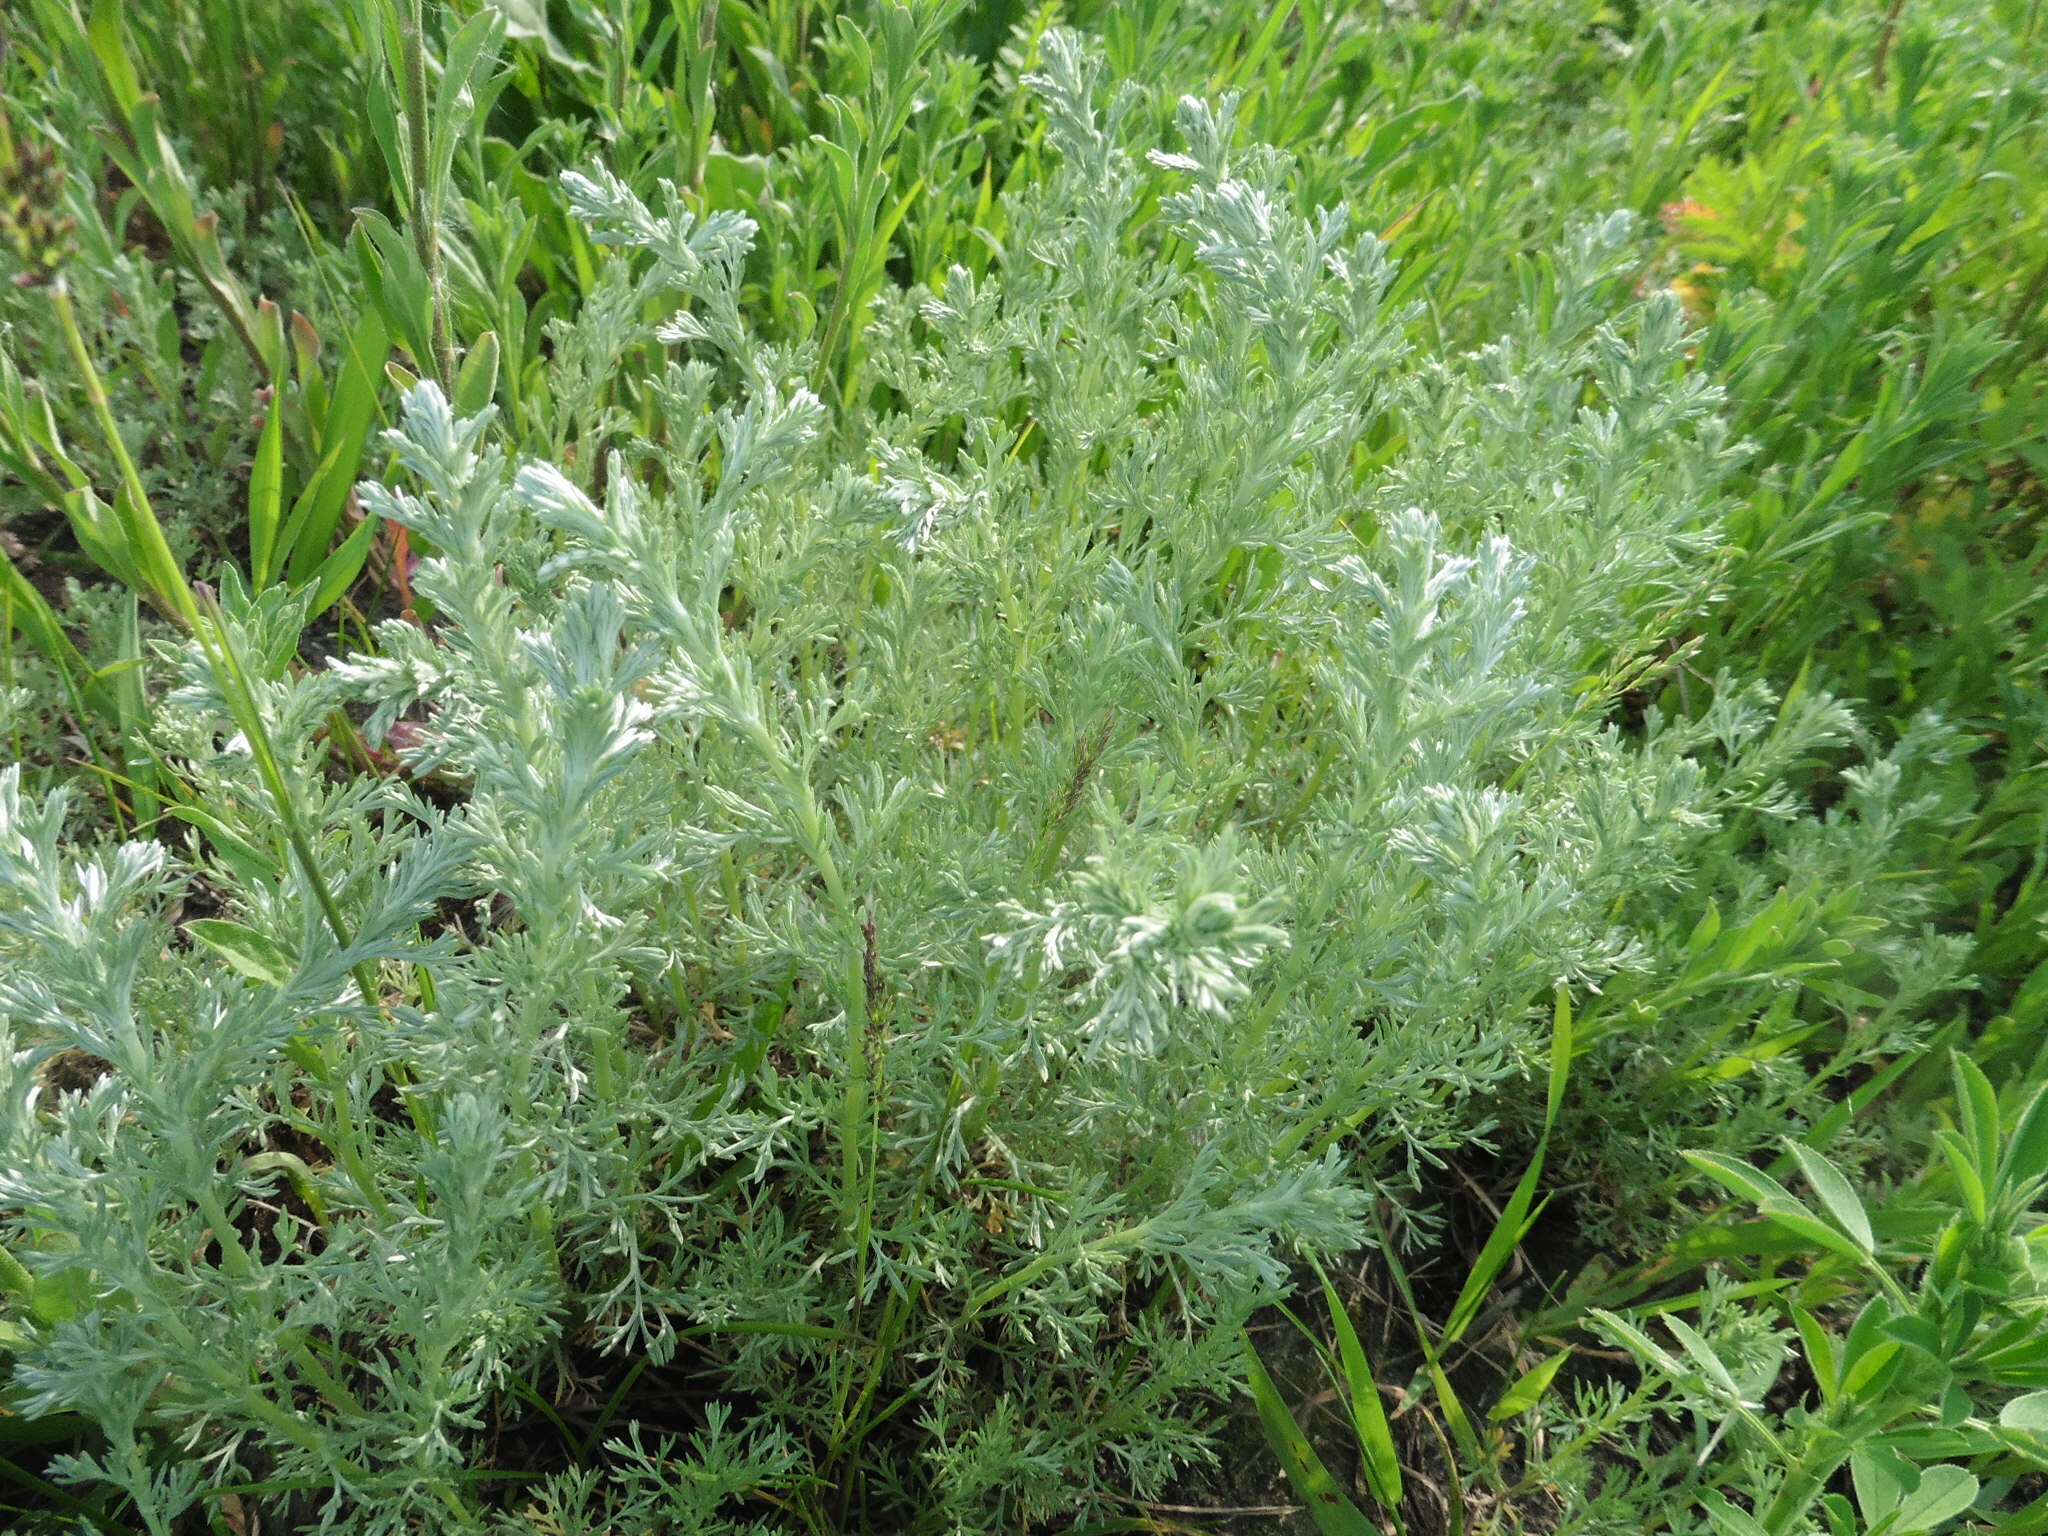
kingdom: Plantae
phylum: Tracheophyta
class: Magnoliopsida
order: Asterales
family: Asteraceae
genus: Artemisia
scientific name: Artemisia austriaca
